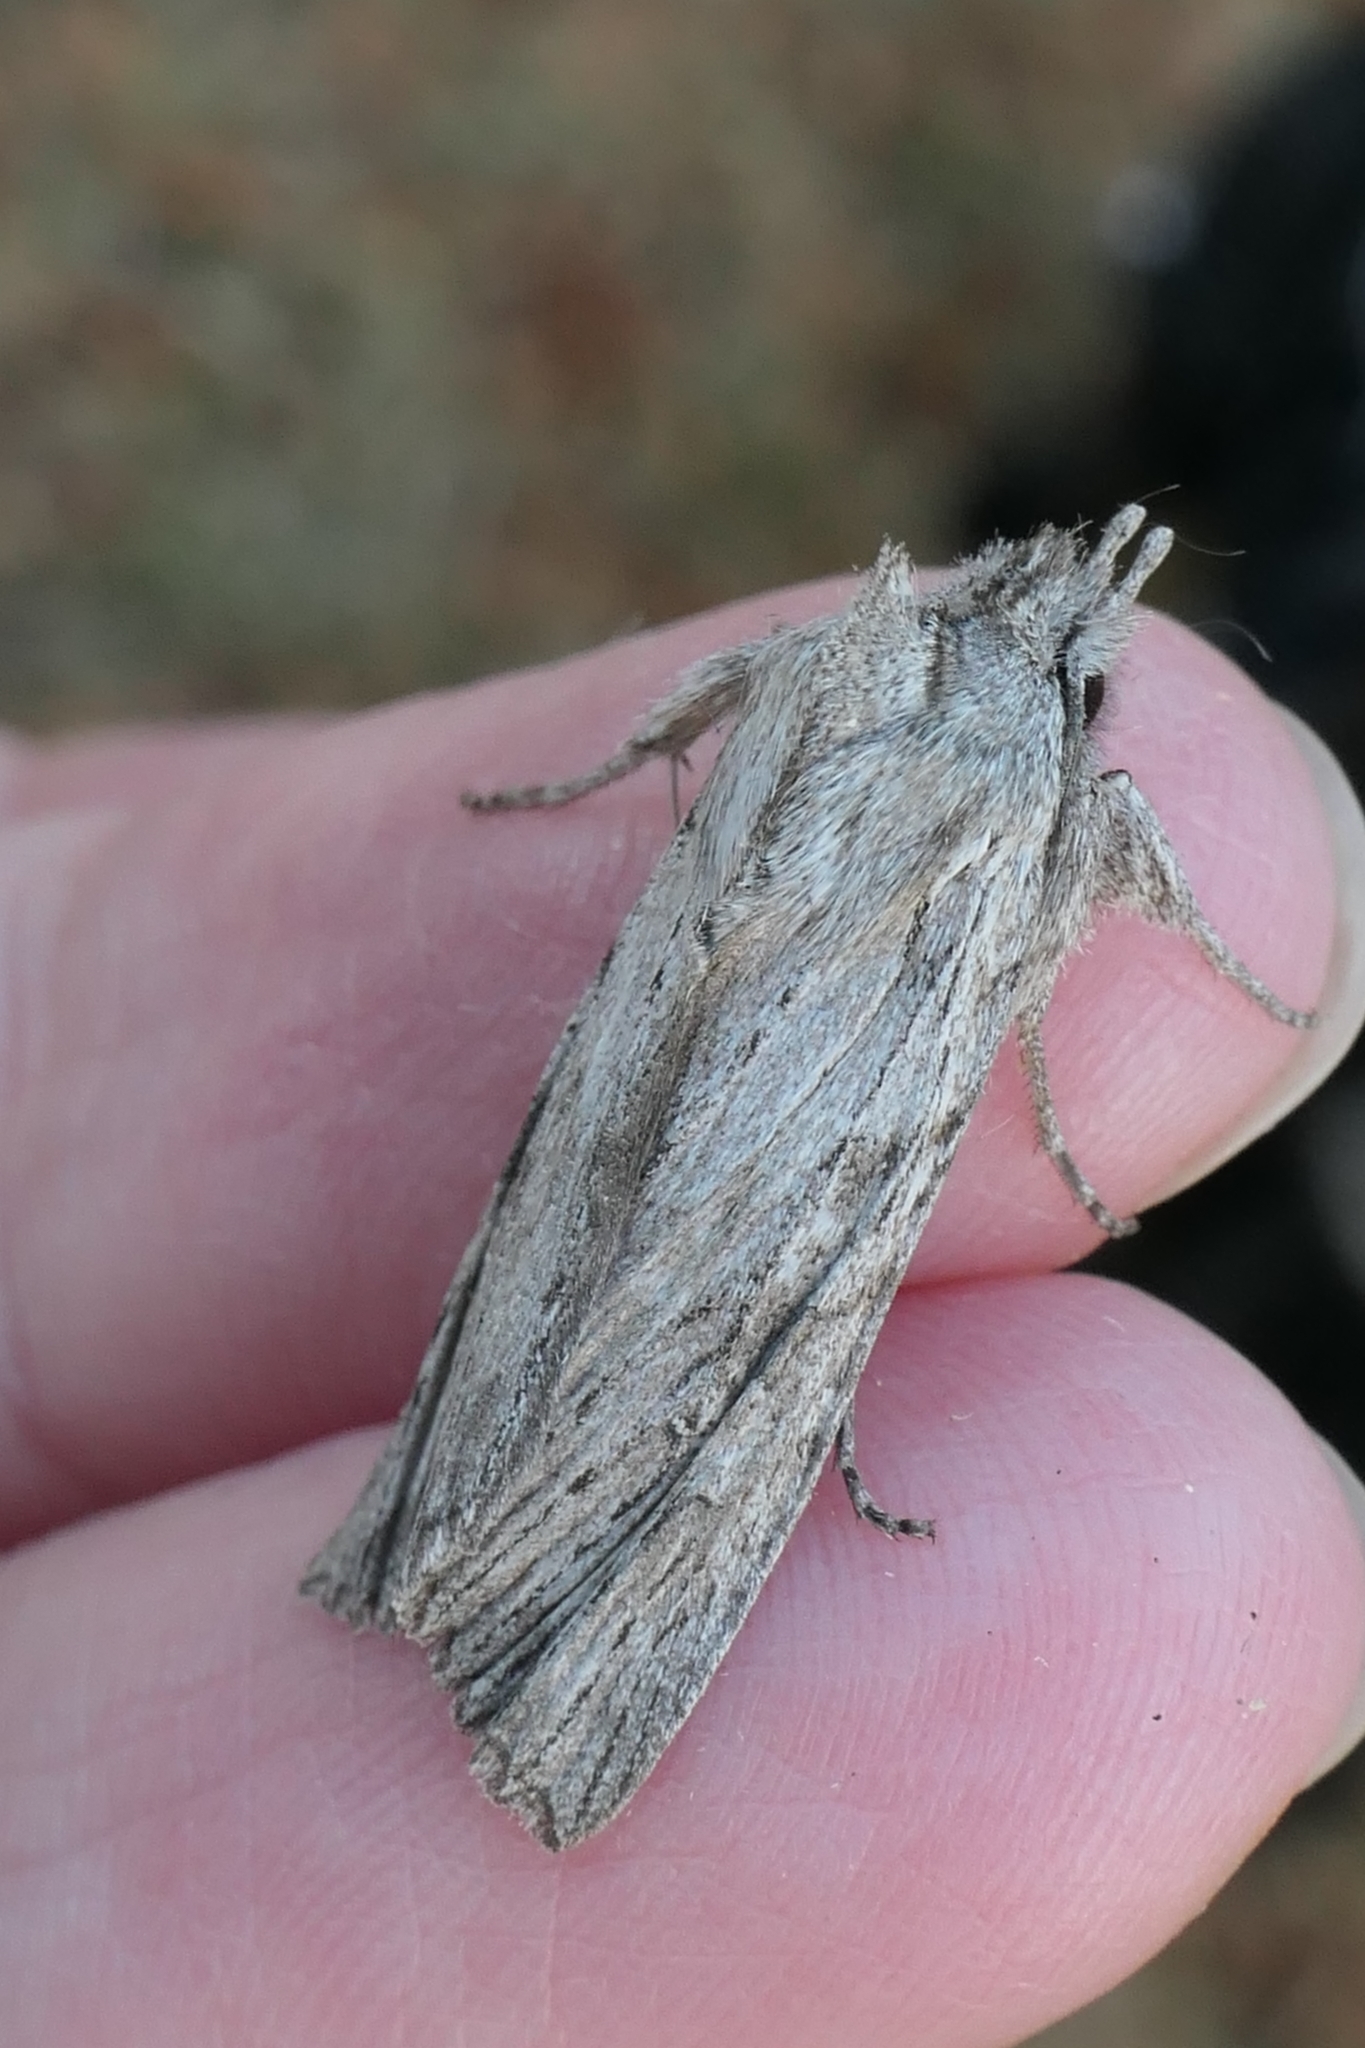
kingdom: Animalia
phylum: Arthropoda
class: Insecta
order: Lepidoptera
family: Noctuidae
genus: Physetica
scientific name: Physetica phricias
